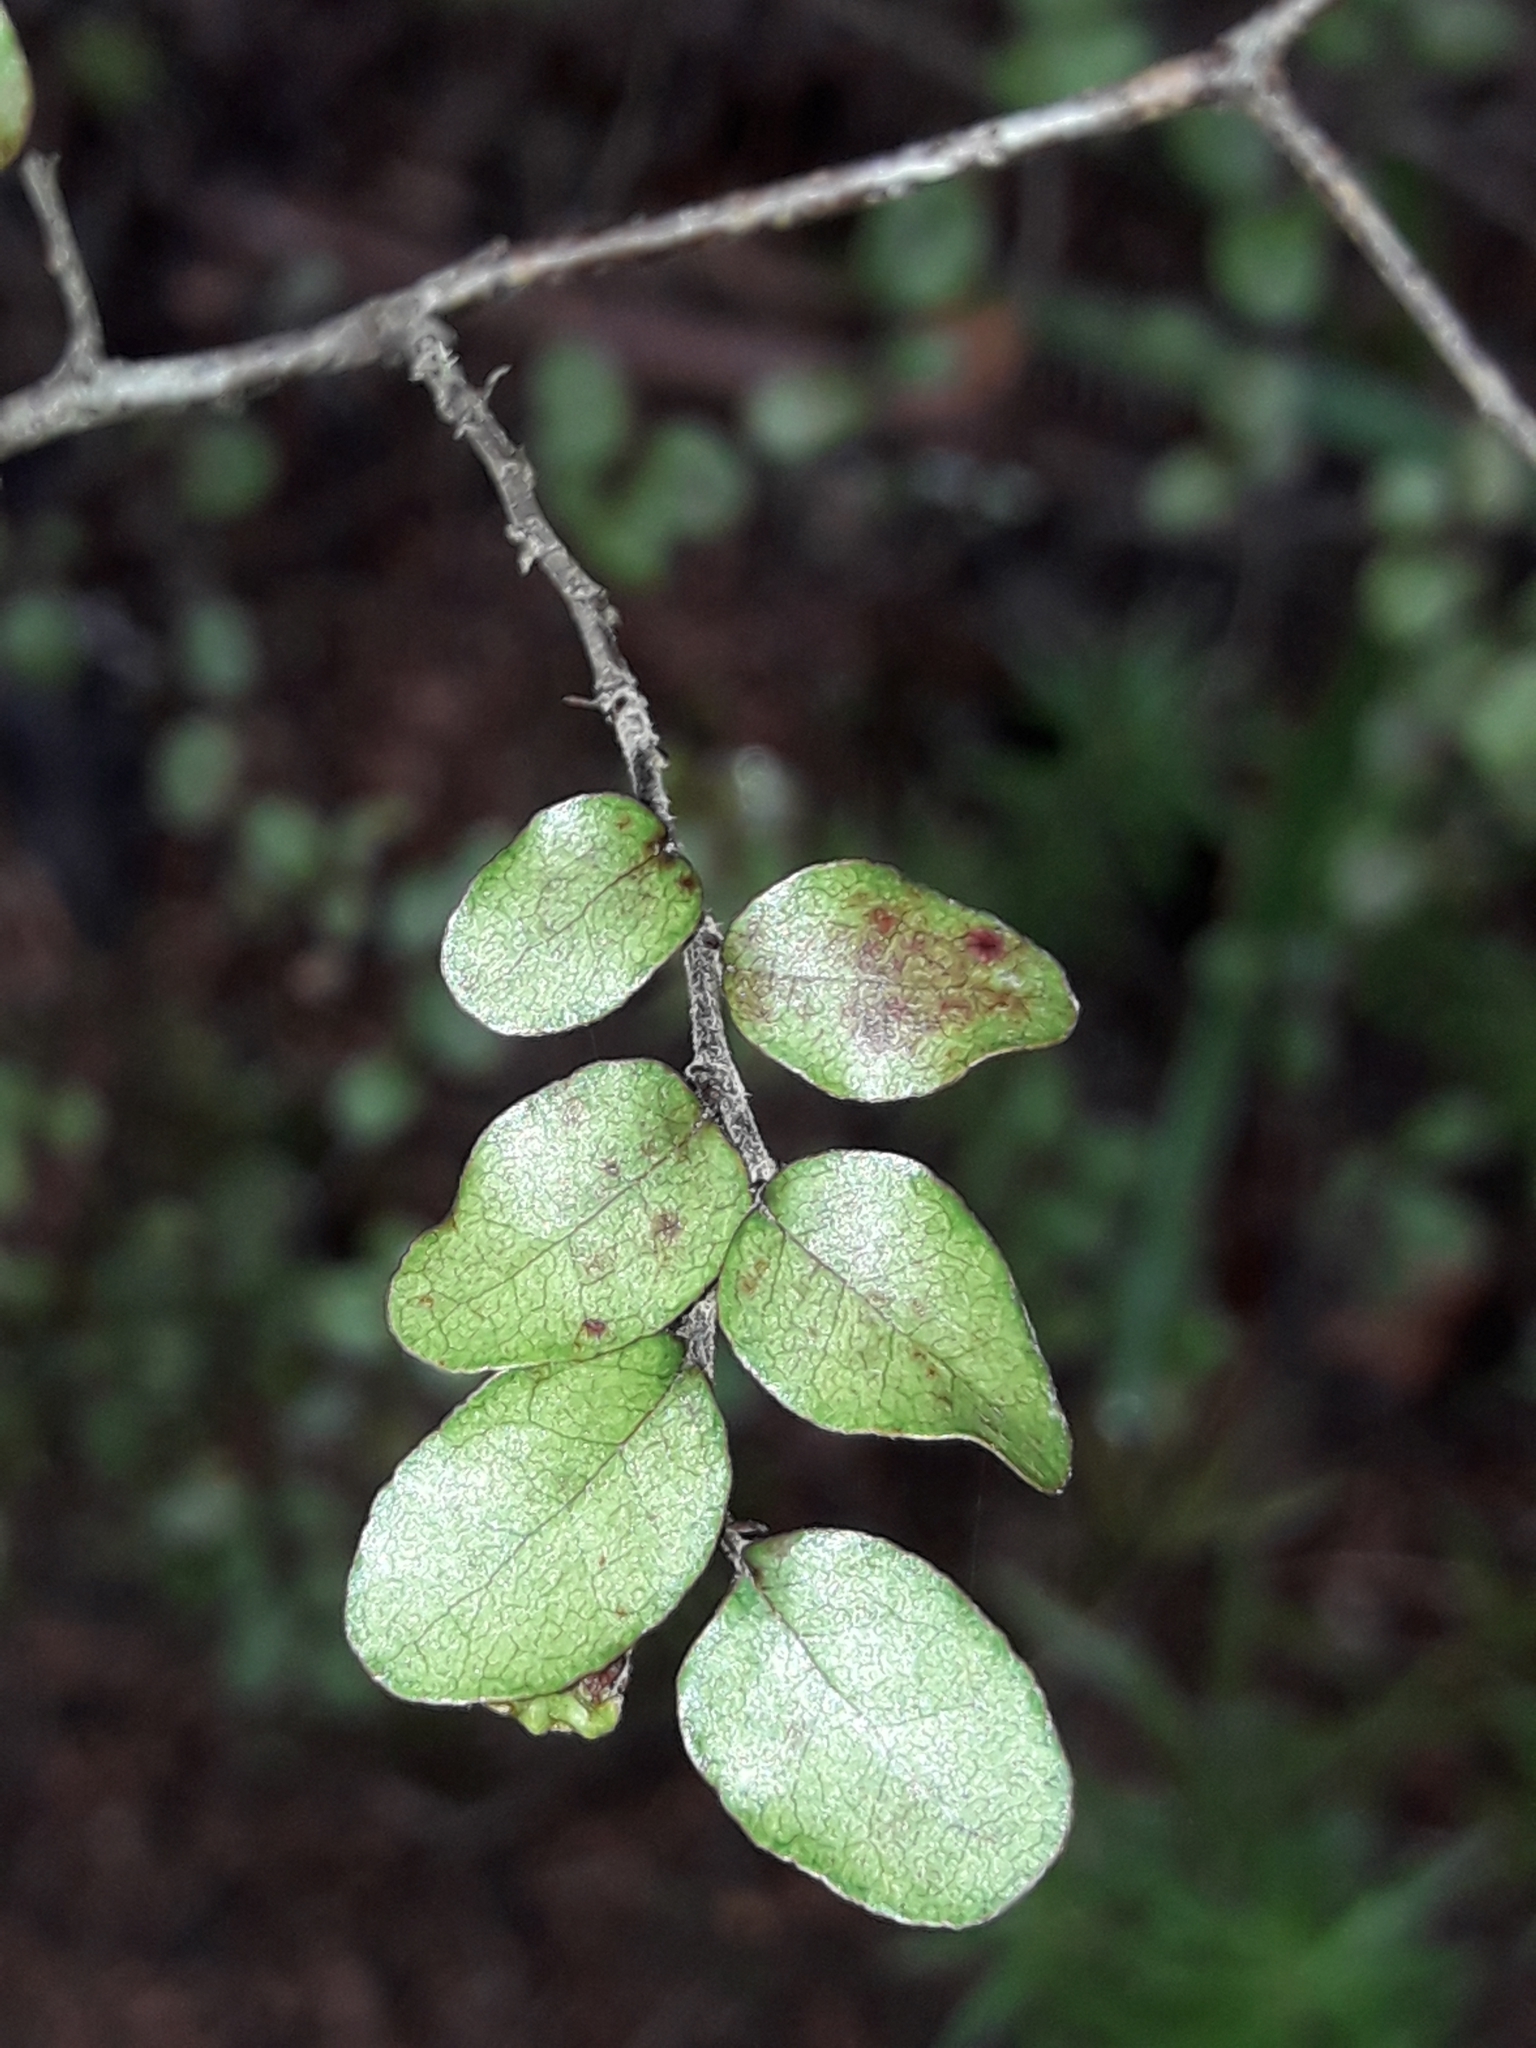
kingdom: Plantae
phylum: Tracheophyta
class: Magnoliopsida
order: Fagales
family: Nothofagaceae
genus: Nothofagus
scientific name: Nothofagus solandri
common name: Black beech
